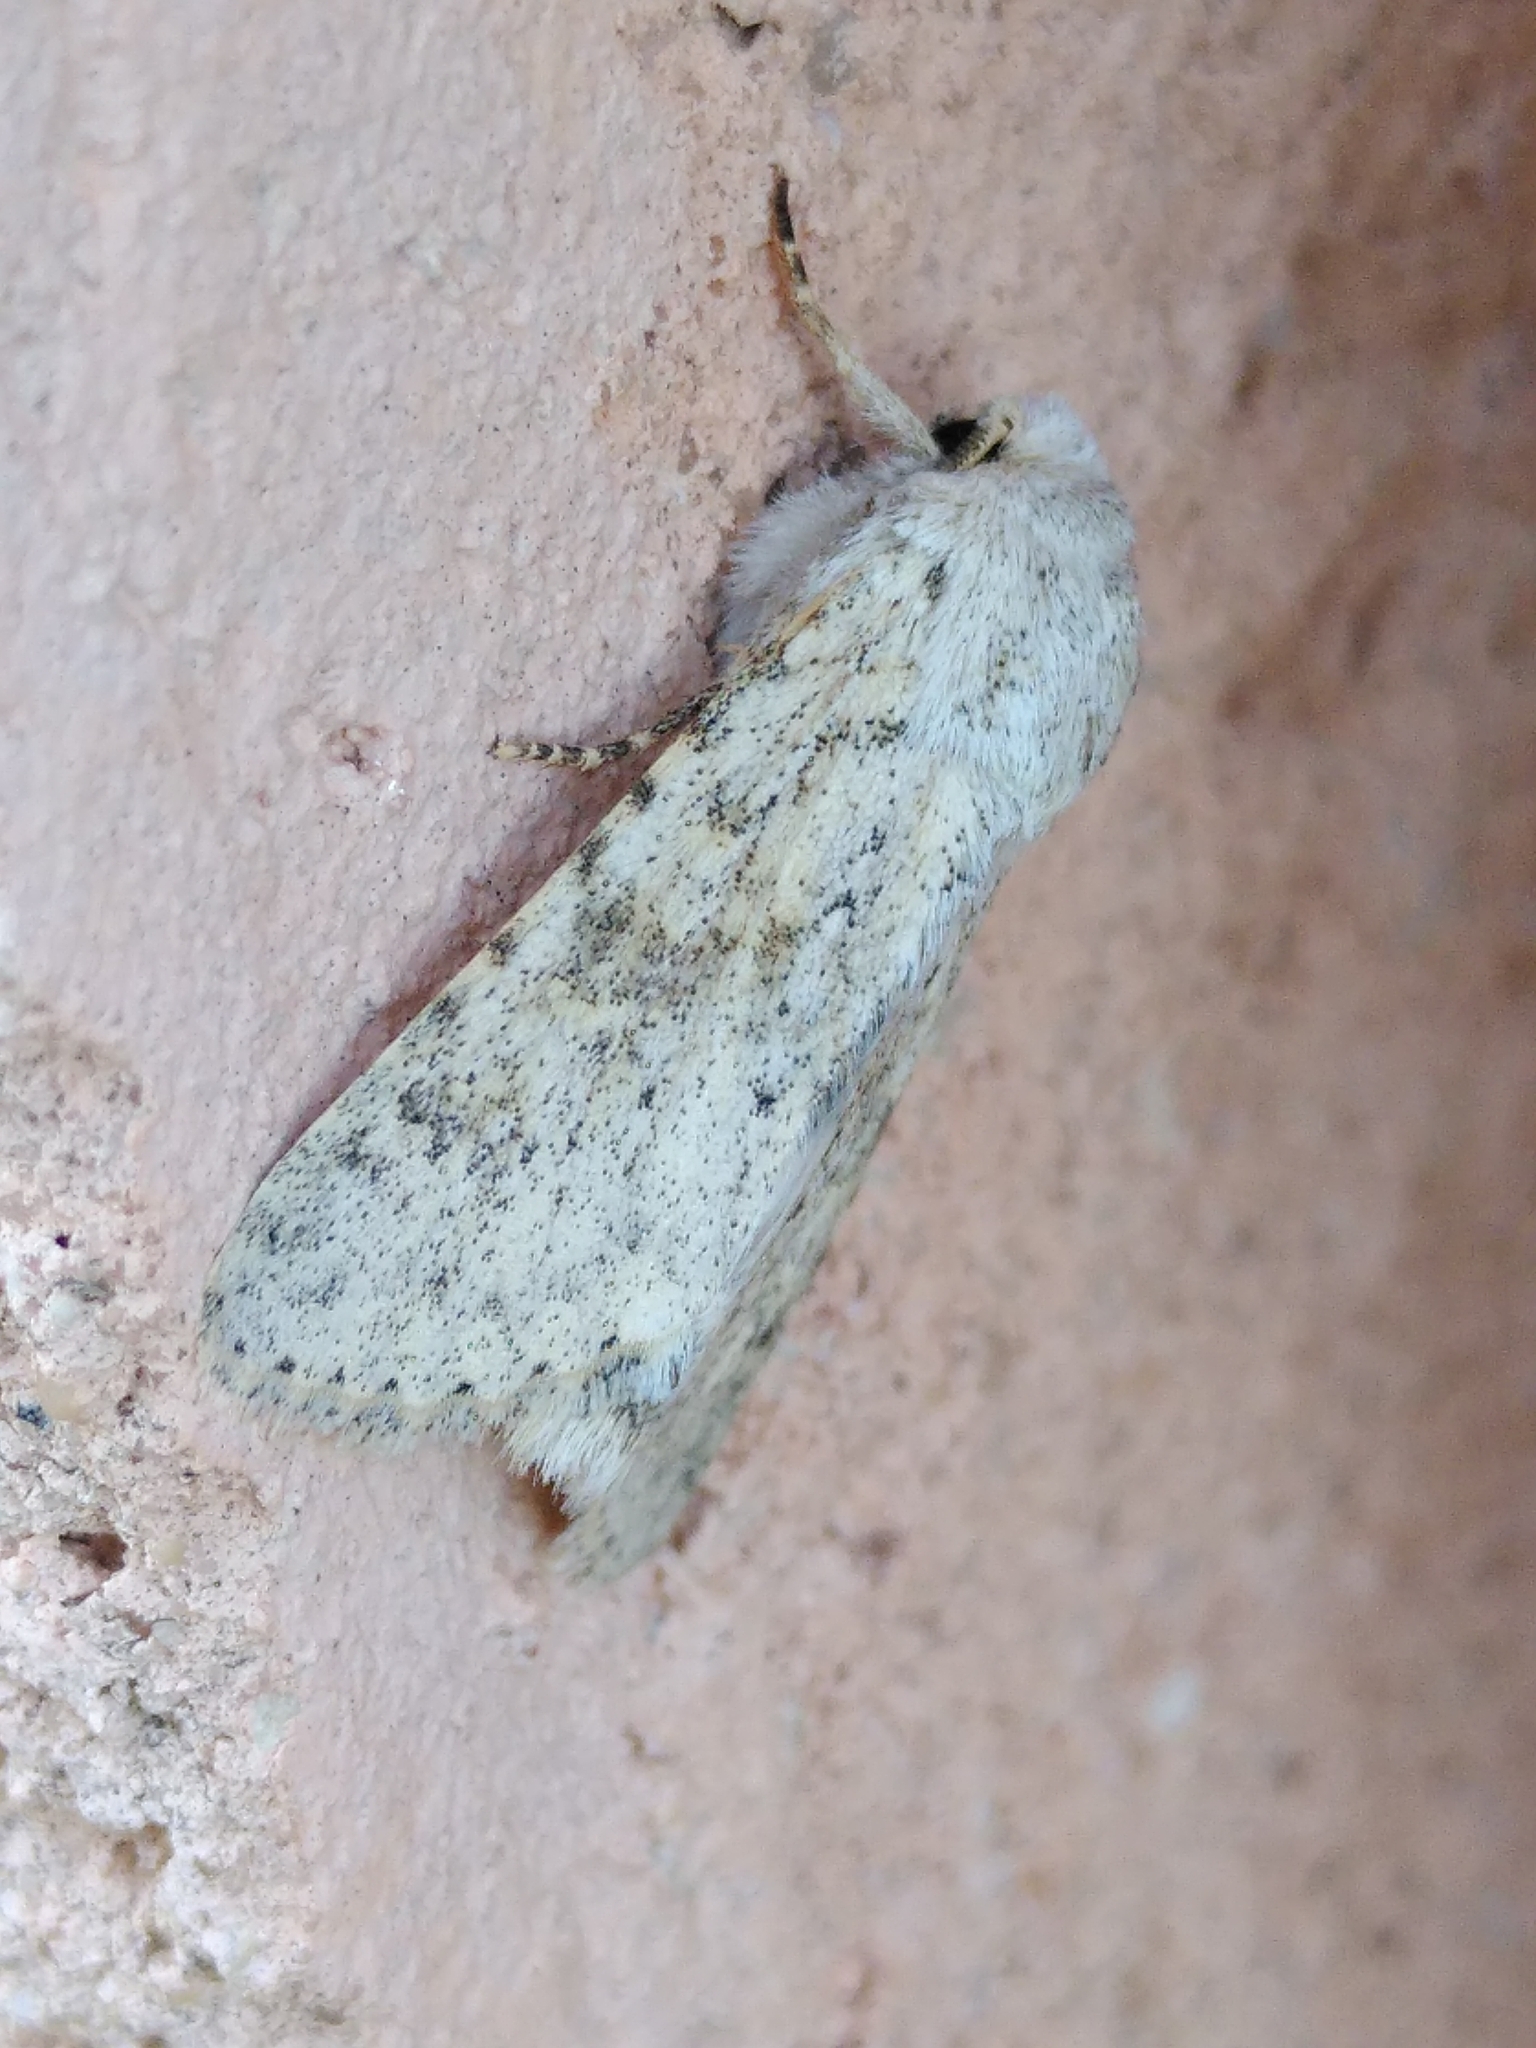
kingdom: Animalia
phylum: Arthropoda
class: Insecta
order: Lepidoptera
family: Noctuidae
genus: Aporophyla
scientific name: Aporophyla canescens
